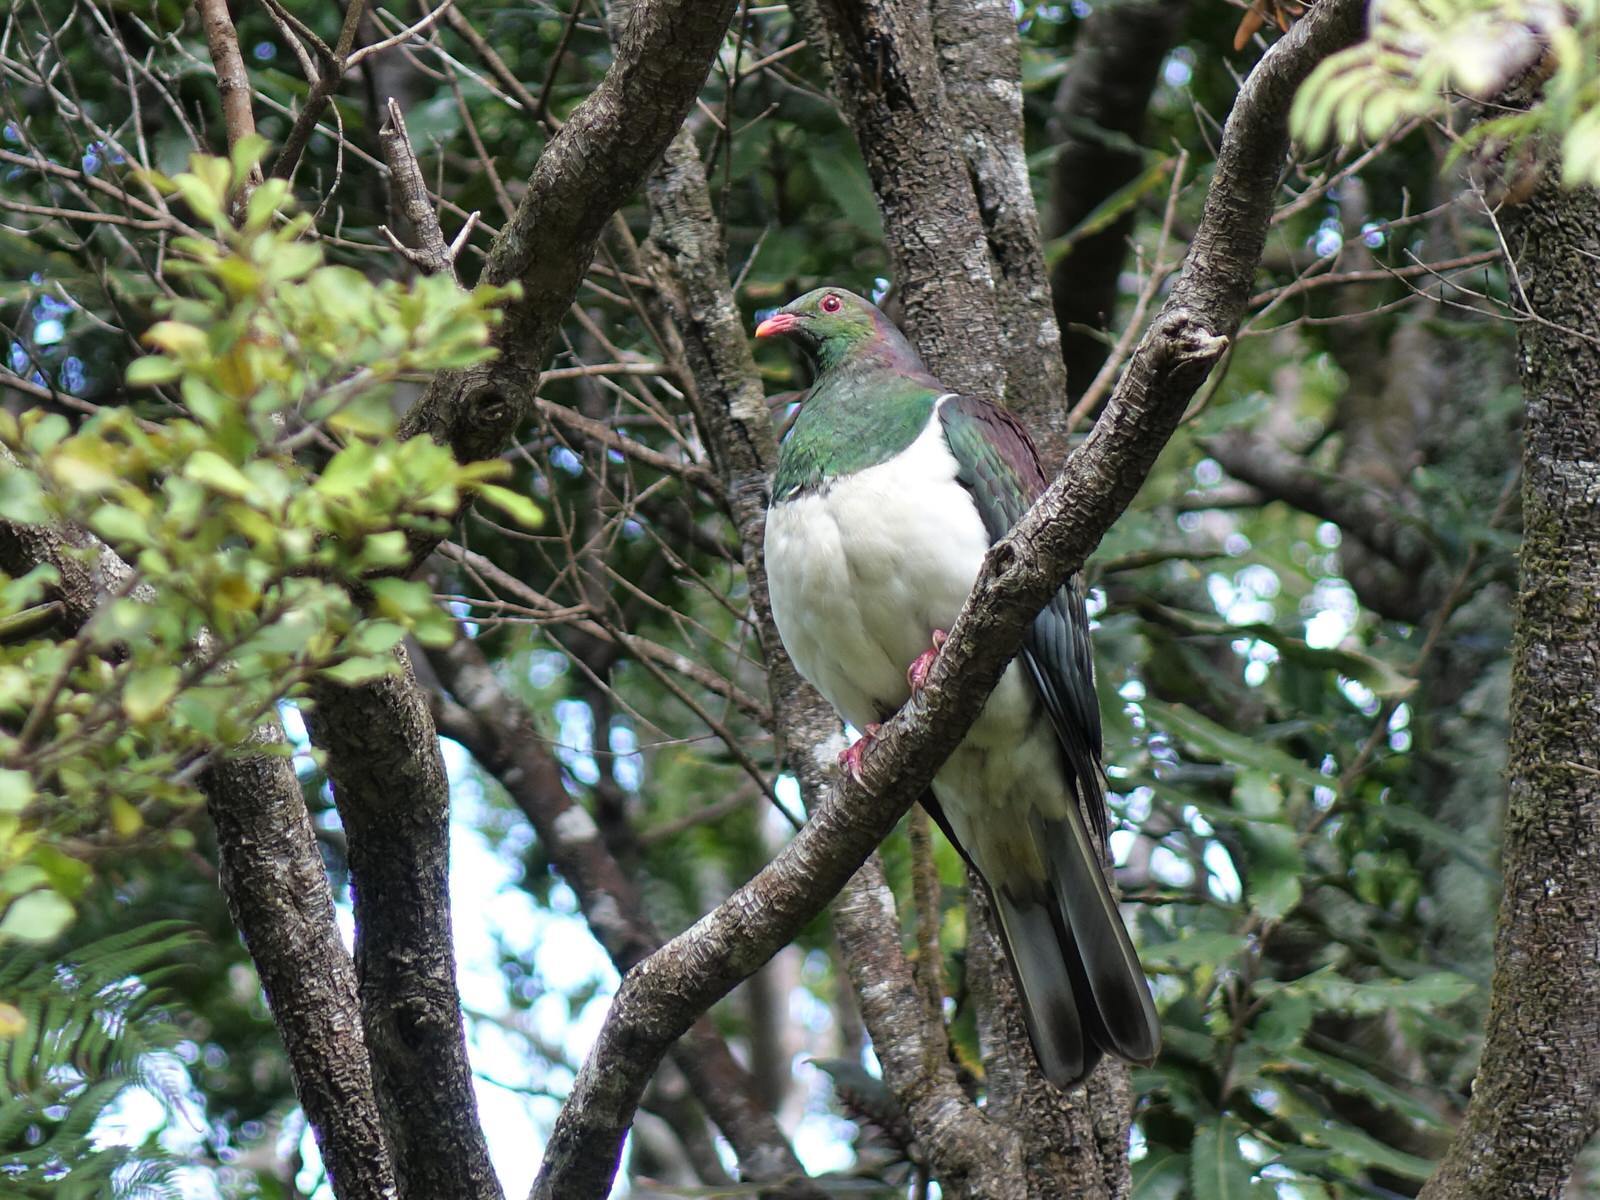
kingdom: Animalia
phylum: Chordata
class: Aves
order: Columbiformes
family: Columbidae
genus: Hemiphaga
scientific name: Hemiphaga novaeseelandiae
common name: New zealand pigeon
